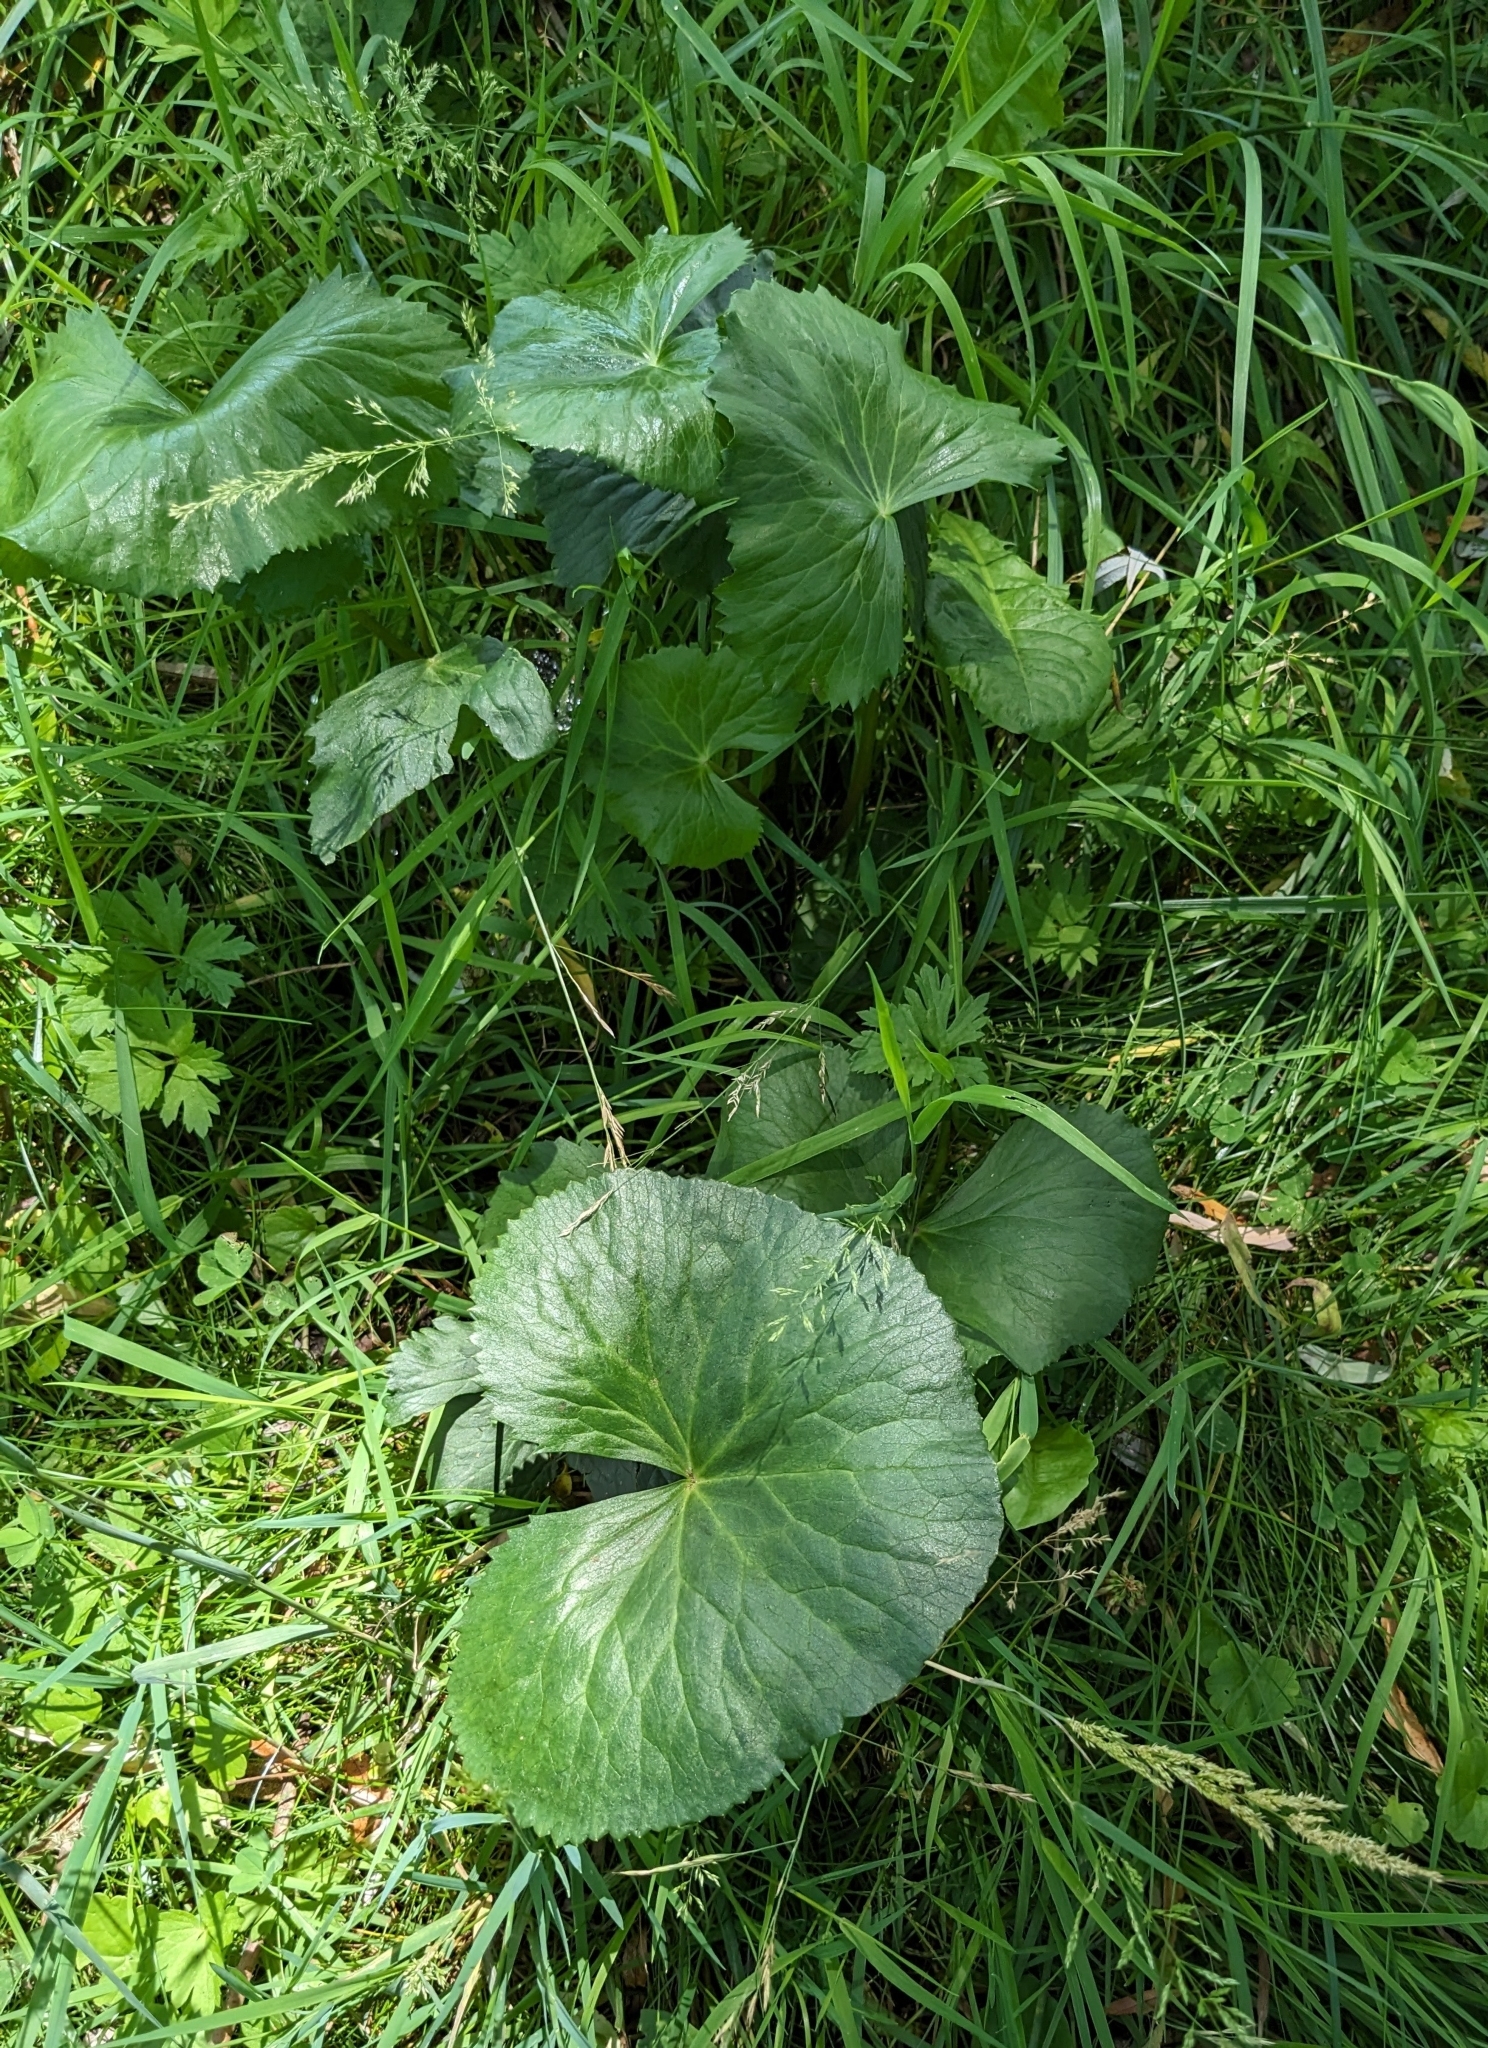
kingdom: Plantae
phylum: Tracheophyta
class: Magnoliopsida
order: Ranunculales
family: Ranunculaceae
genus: Caltha
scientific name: Caltha palustris
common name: Marsh marigold
